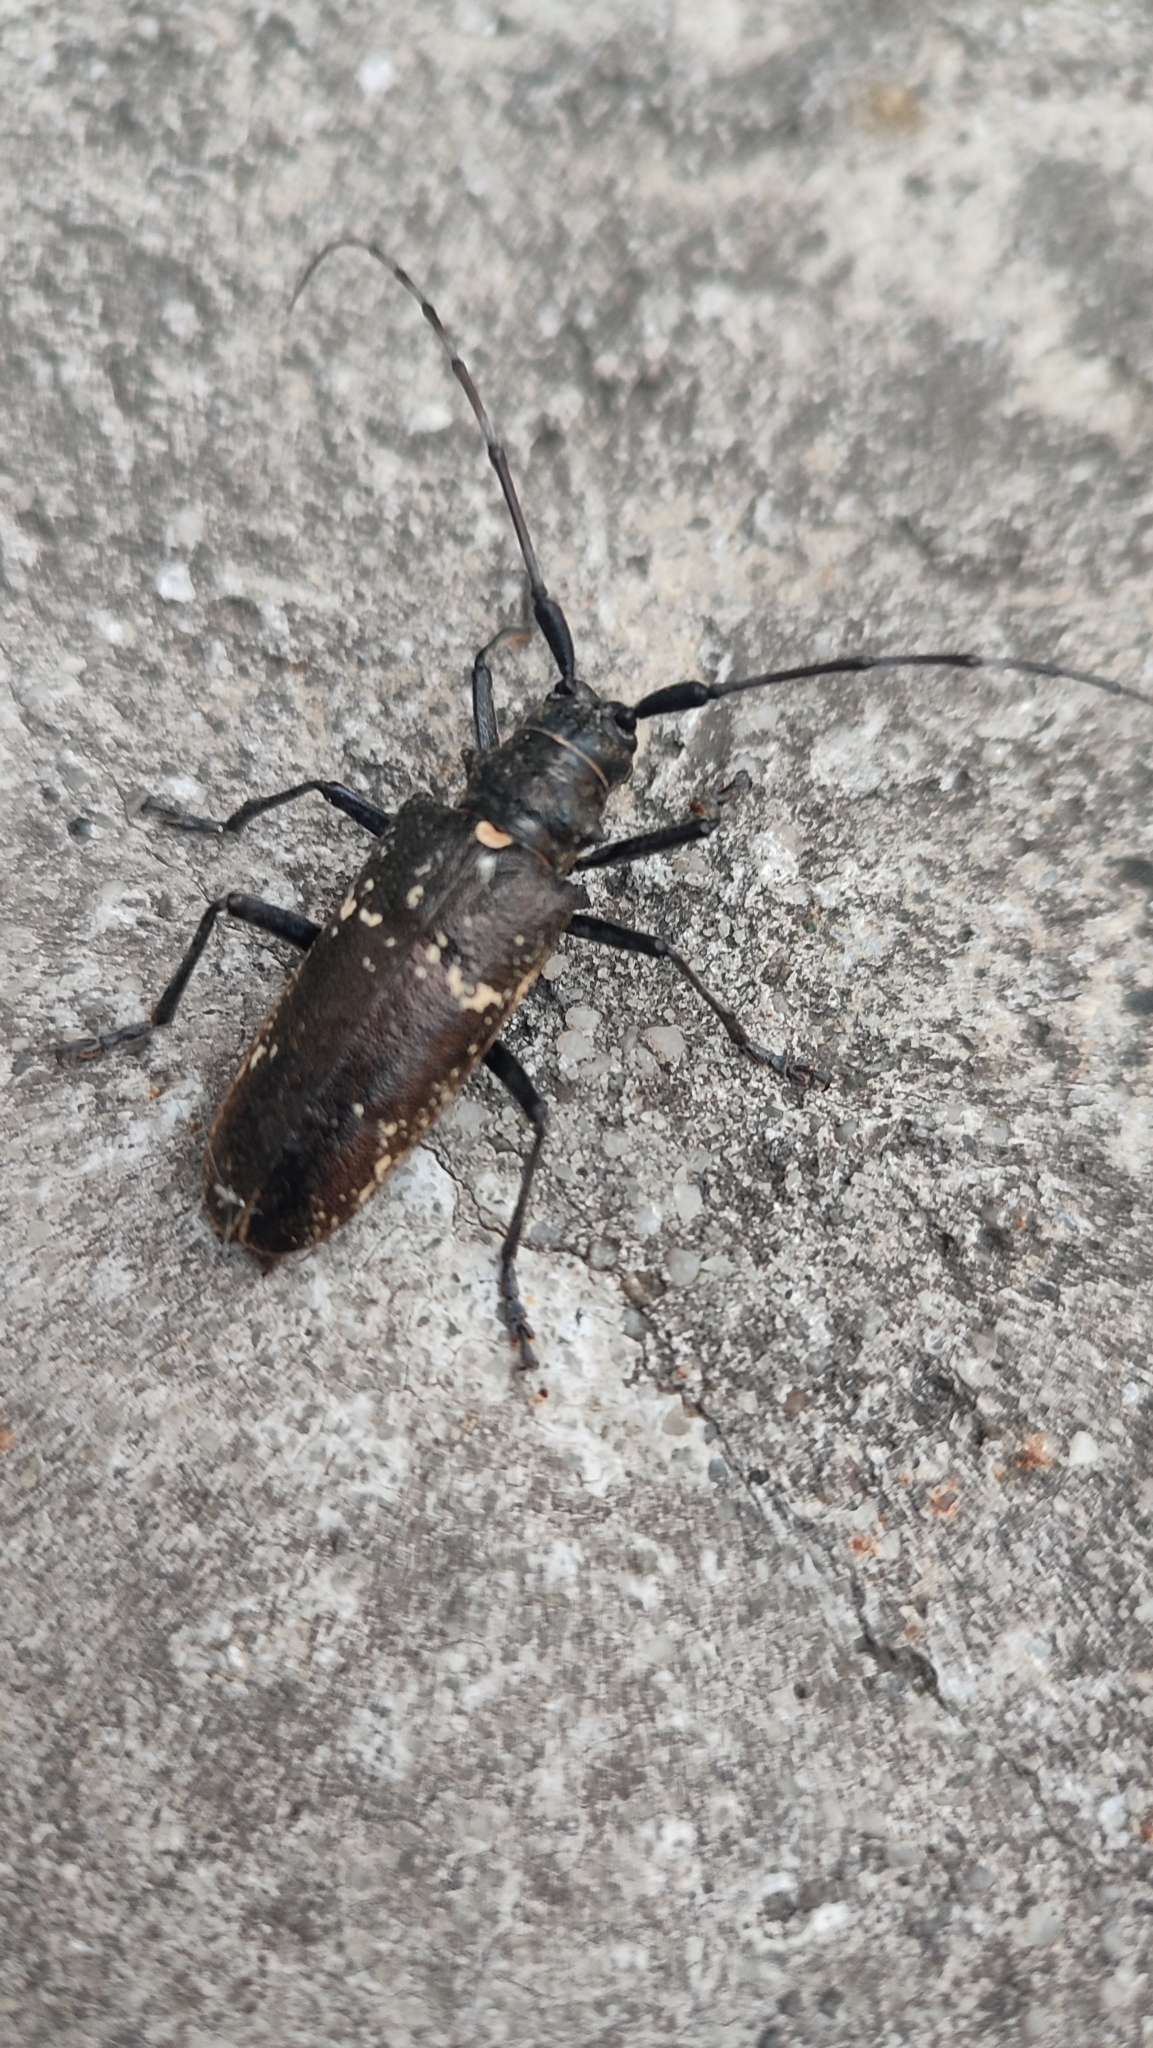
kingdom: Animalia
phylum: Arthropoda
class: Insecta
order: Coleoptera
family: Cerambycidae
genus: Monochamus
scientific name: Monochamus sartor
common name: Pine sawyer
